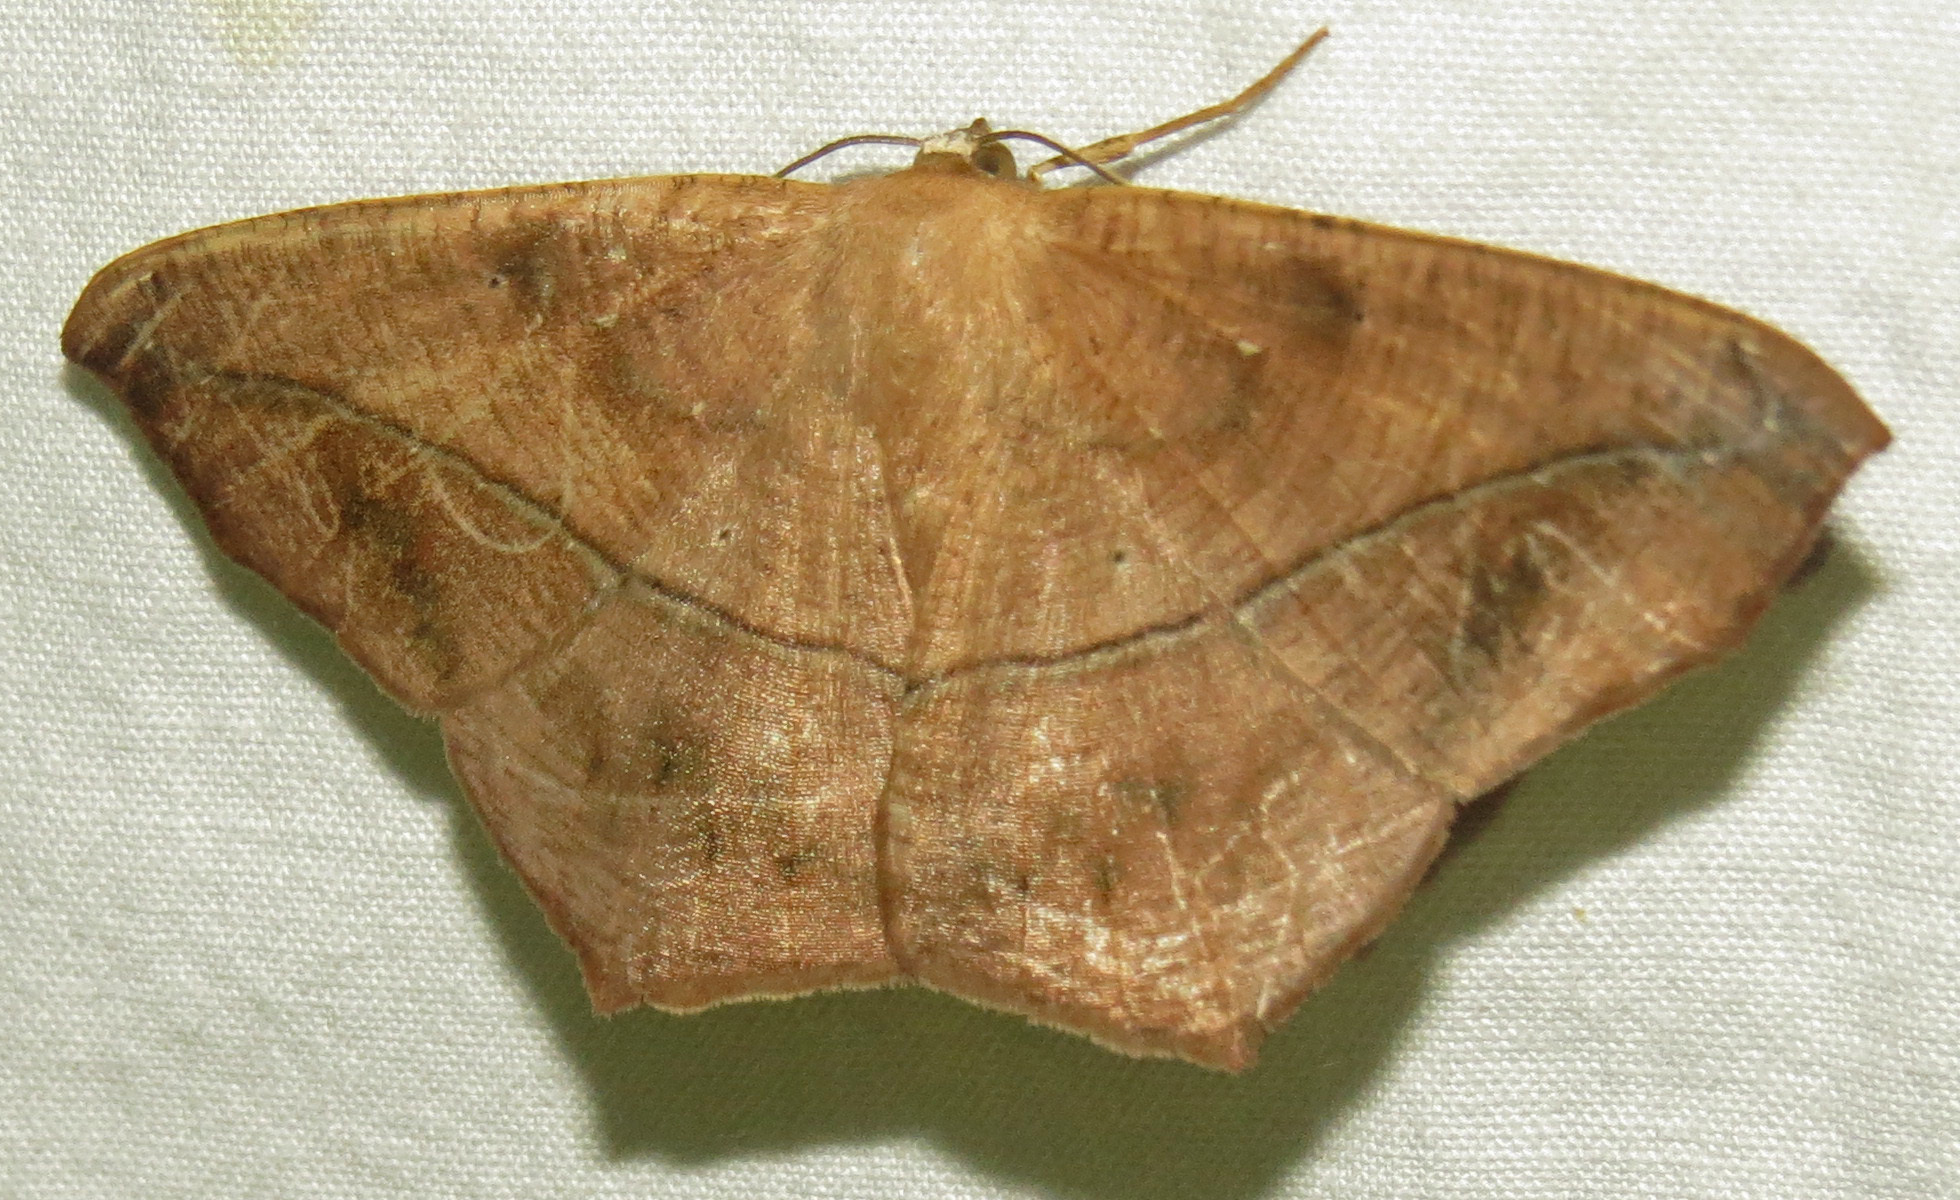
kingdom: Animalia
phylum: Arthropoda
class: Insecta
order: Lepidoptera
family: Geometridae
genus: Prochoerodes
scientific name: Prochoerodes lineola
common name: Large maple spanworm
